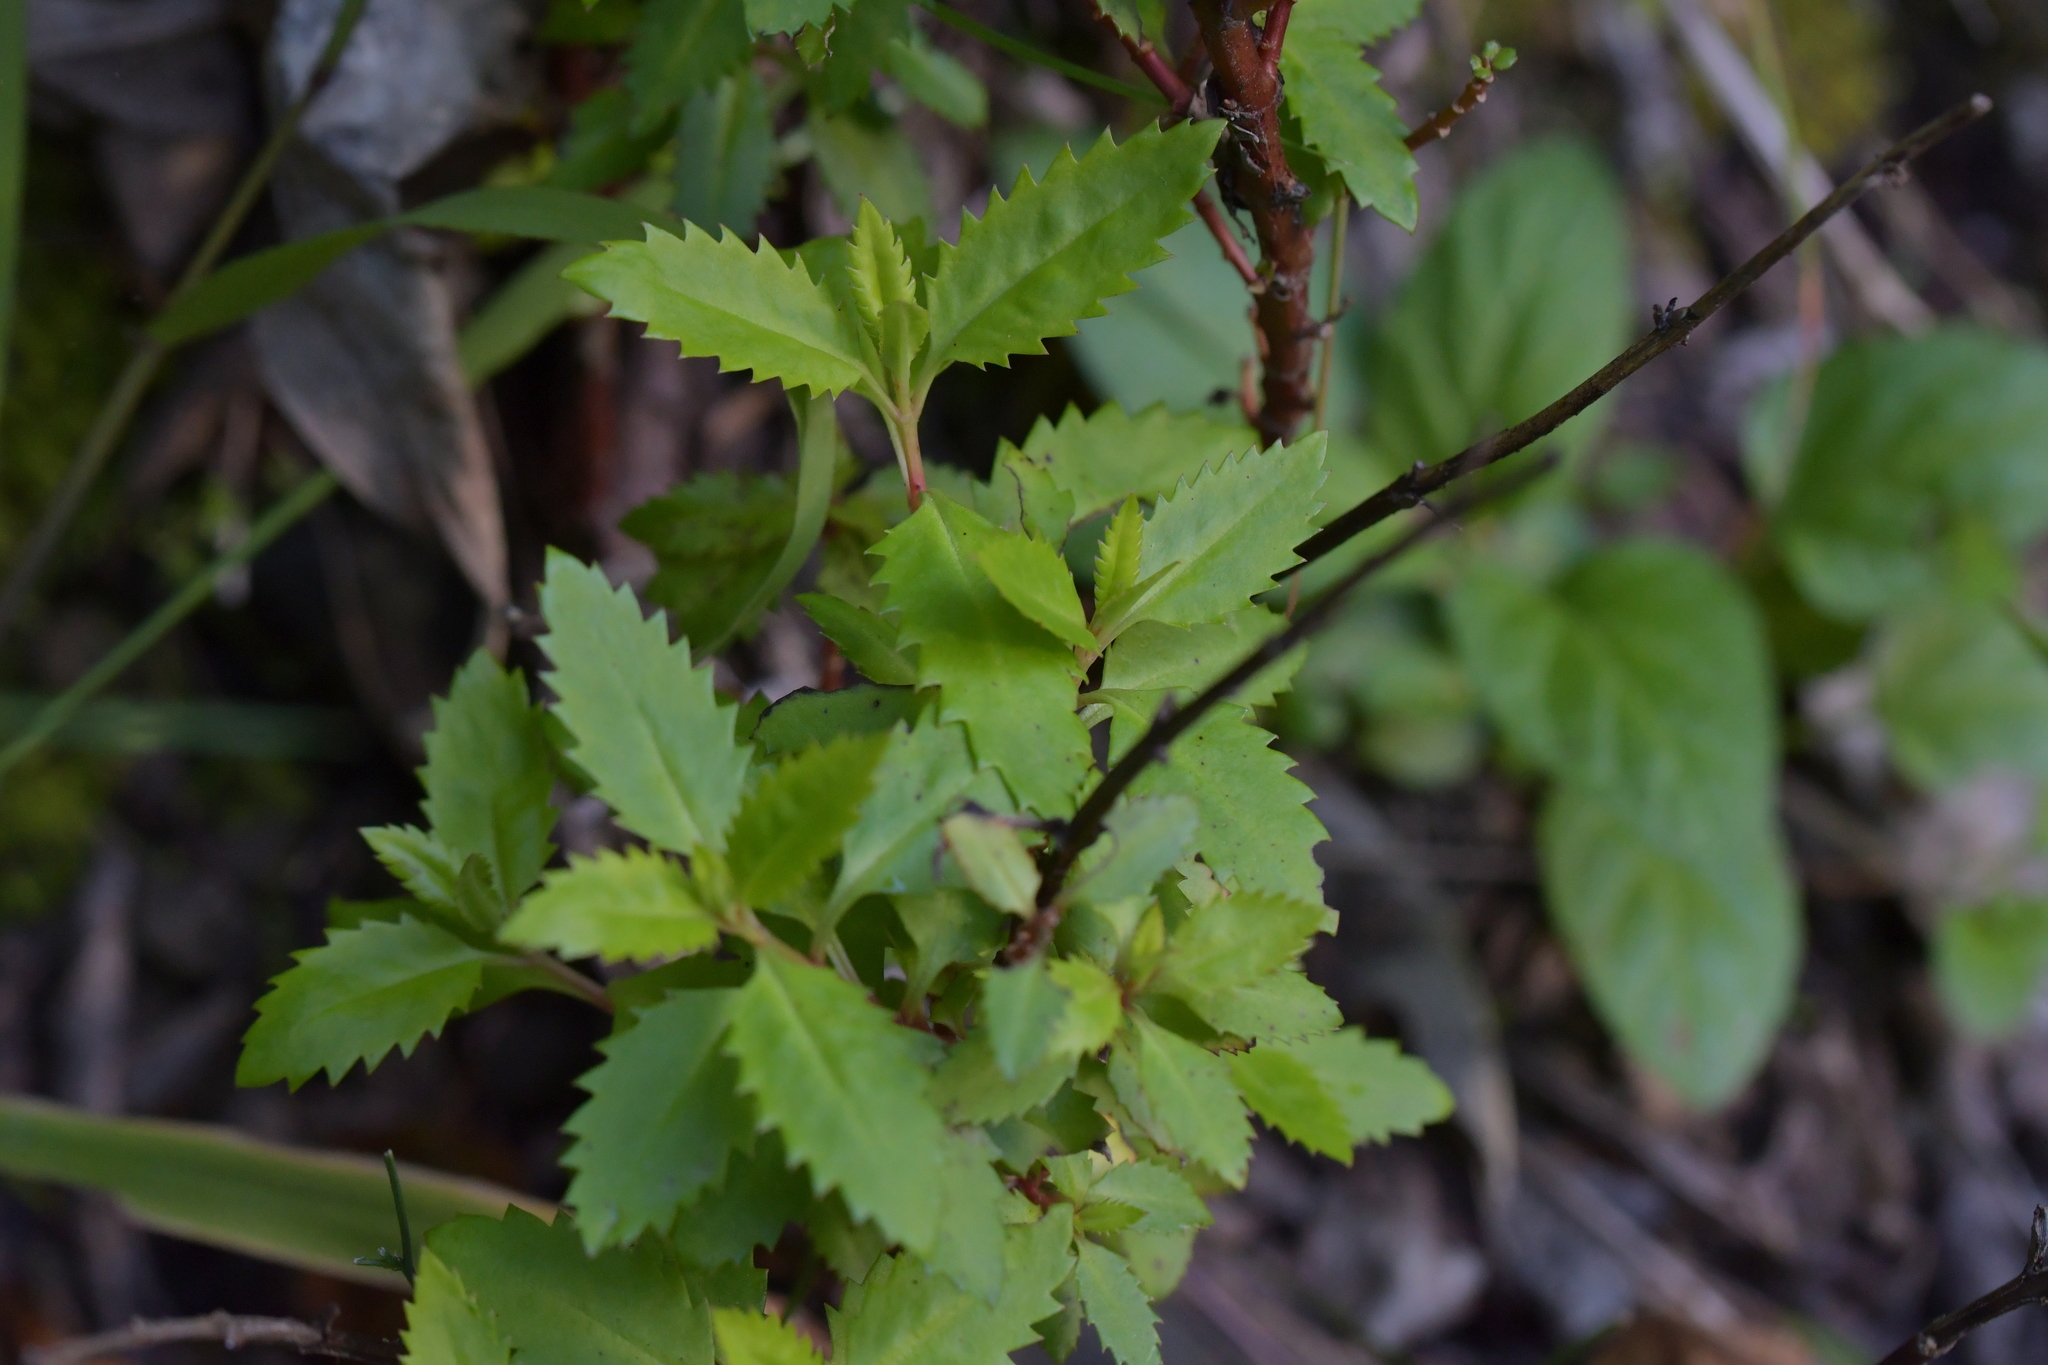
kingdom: Plantae
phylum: Tracheophyta
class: Magnoliopsida
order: Saxifragales
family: Haloragaceae
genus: Haloragis
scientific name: Haloragis erecta
